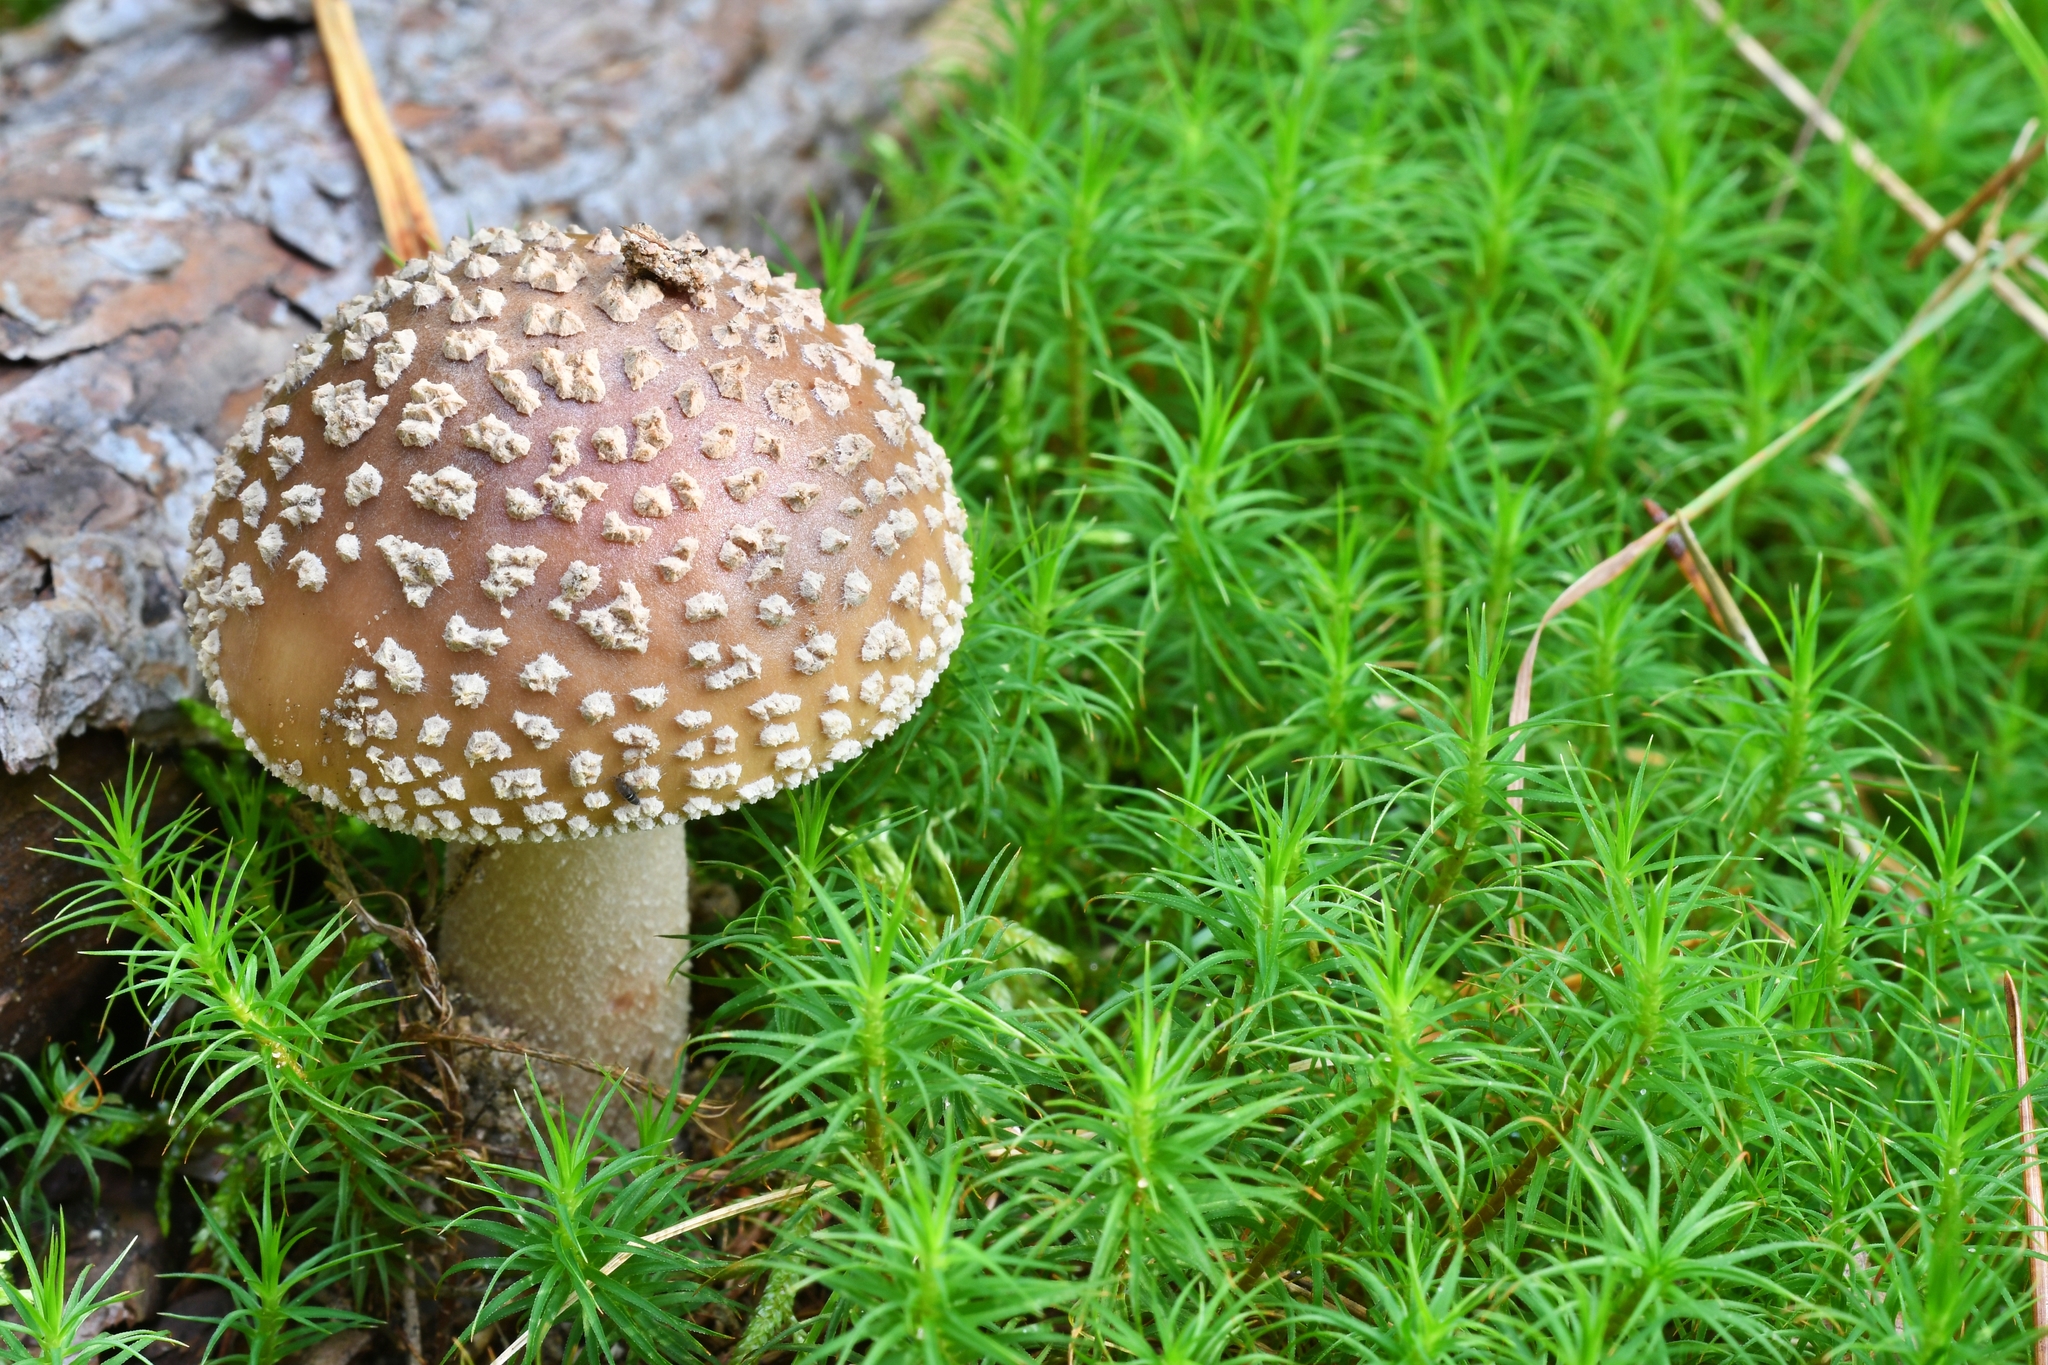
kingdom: Fungi
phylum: Basidiomycota
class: Agaricomycetes
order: Agaricales
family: Amanitaceae
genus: Amanita
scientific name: Amanita pantherina
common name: Panthercap
